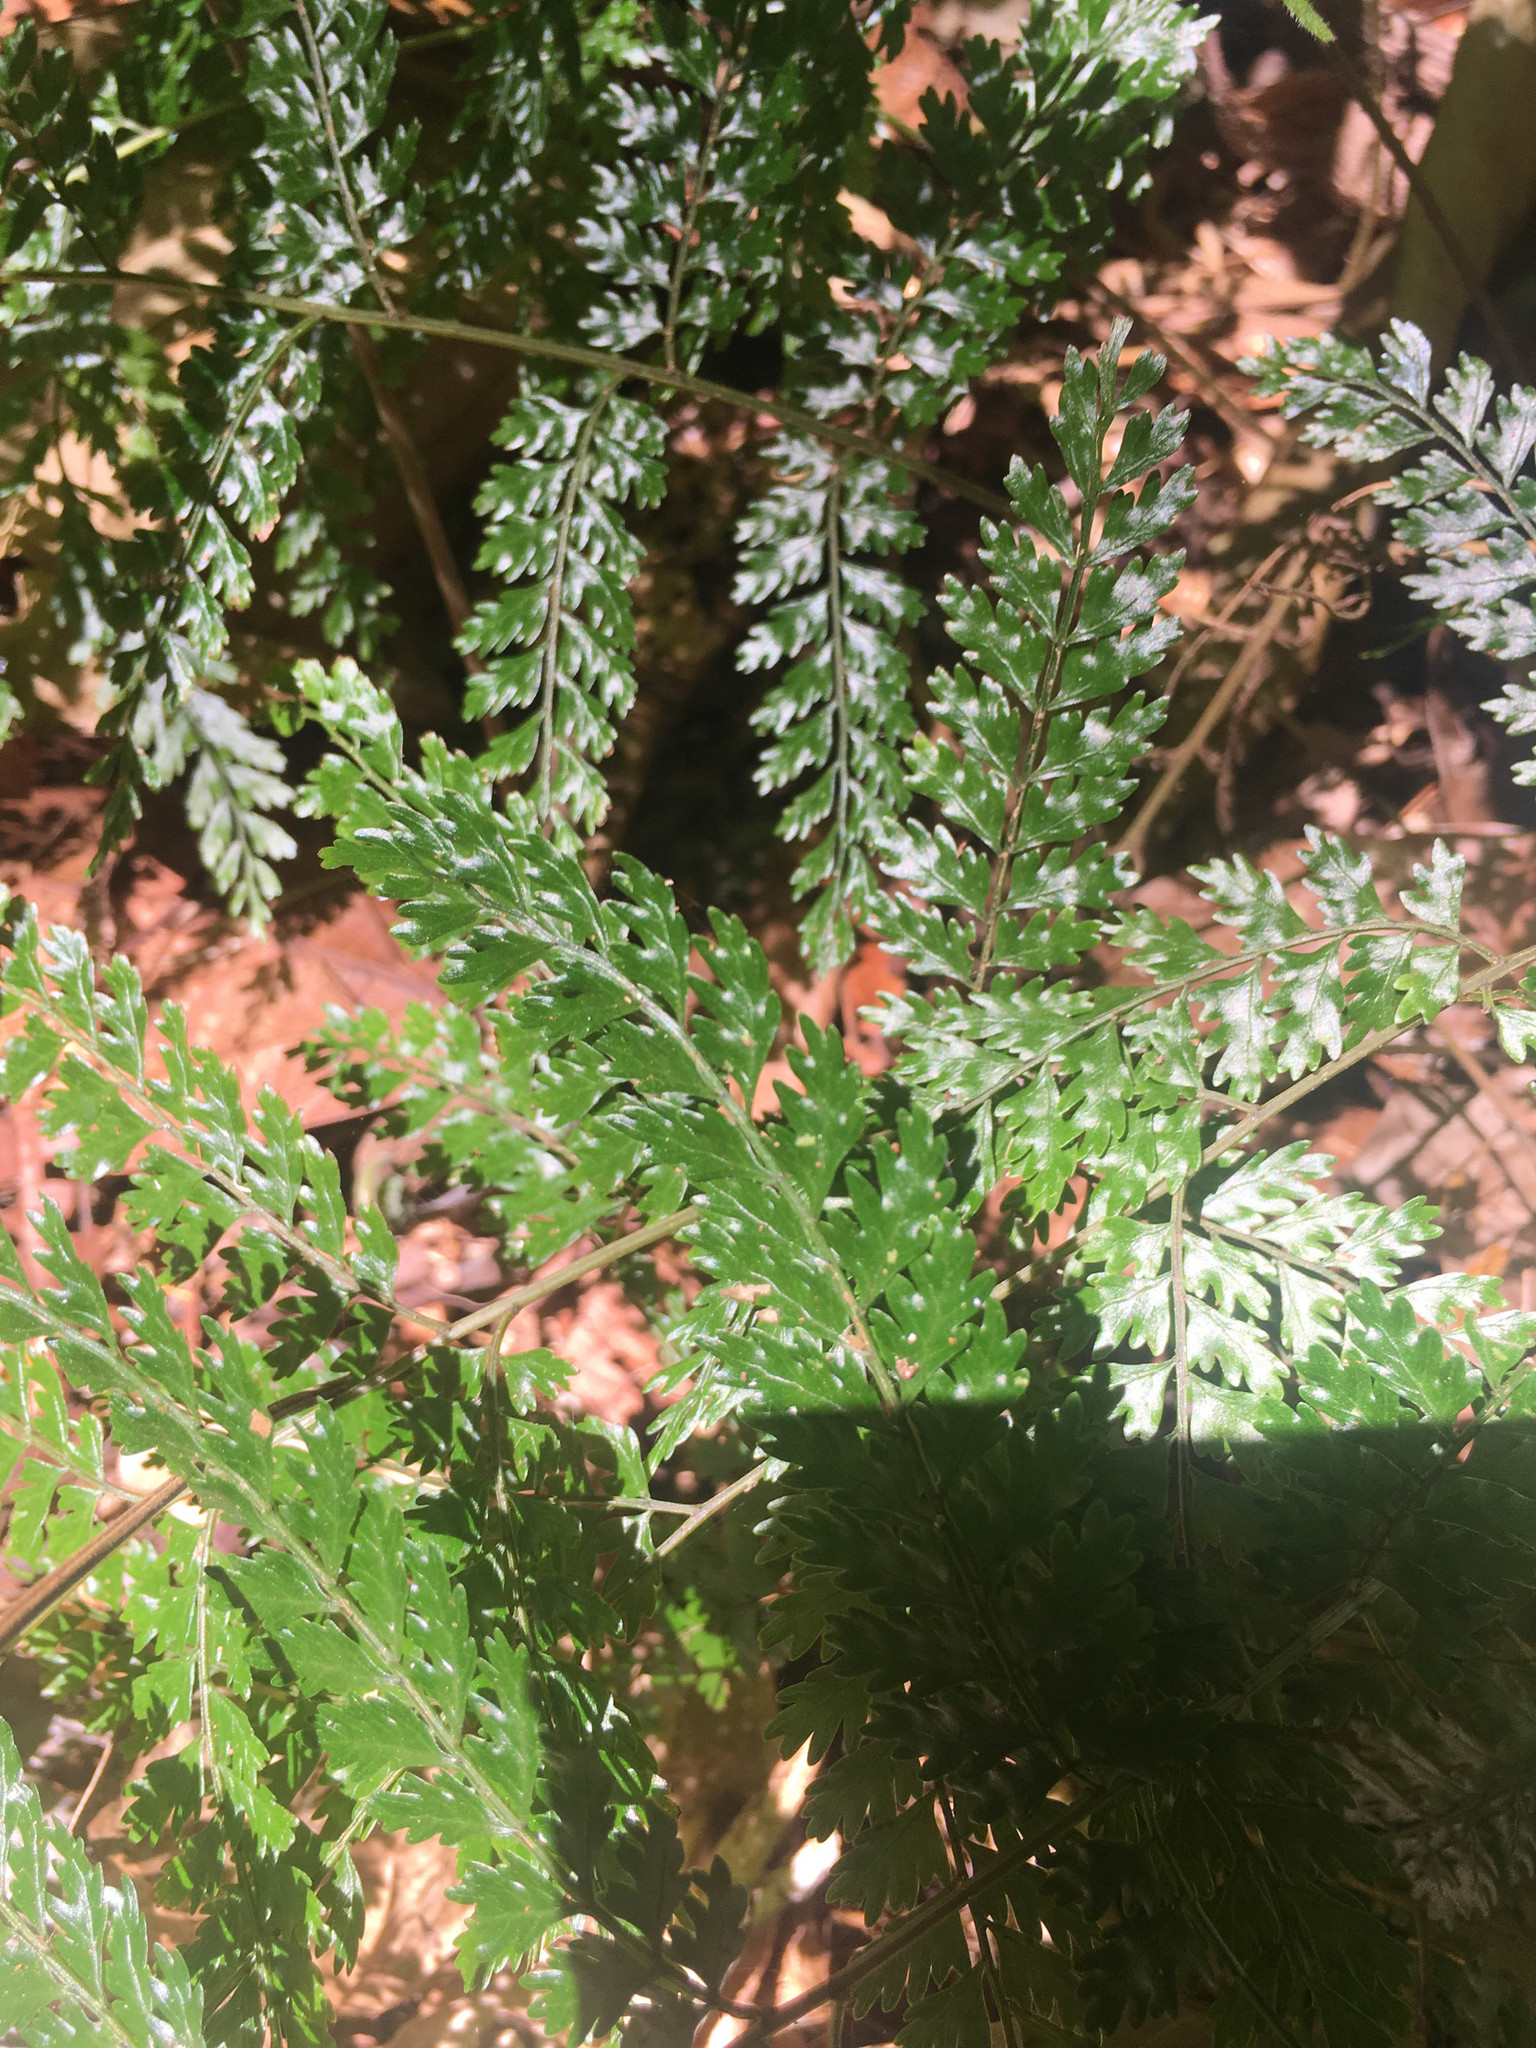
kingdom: Plantae
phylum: Tracheophyta
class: Polypodiopsida
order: Polypodiales
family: Dryopteridaceae
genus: Arthrobotrya
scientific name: Arthrobotrya wilkesiana
